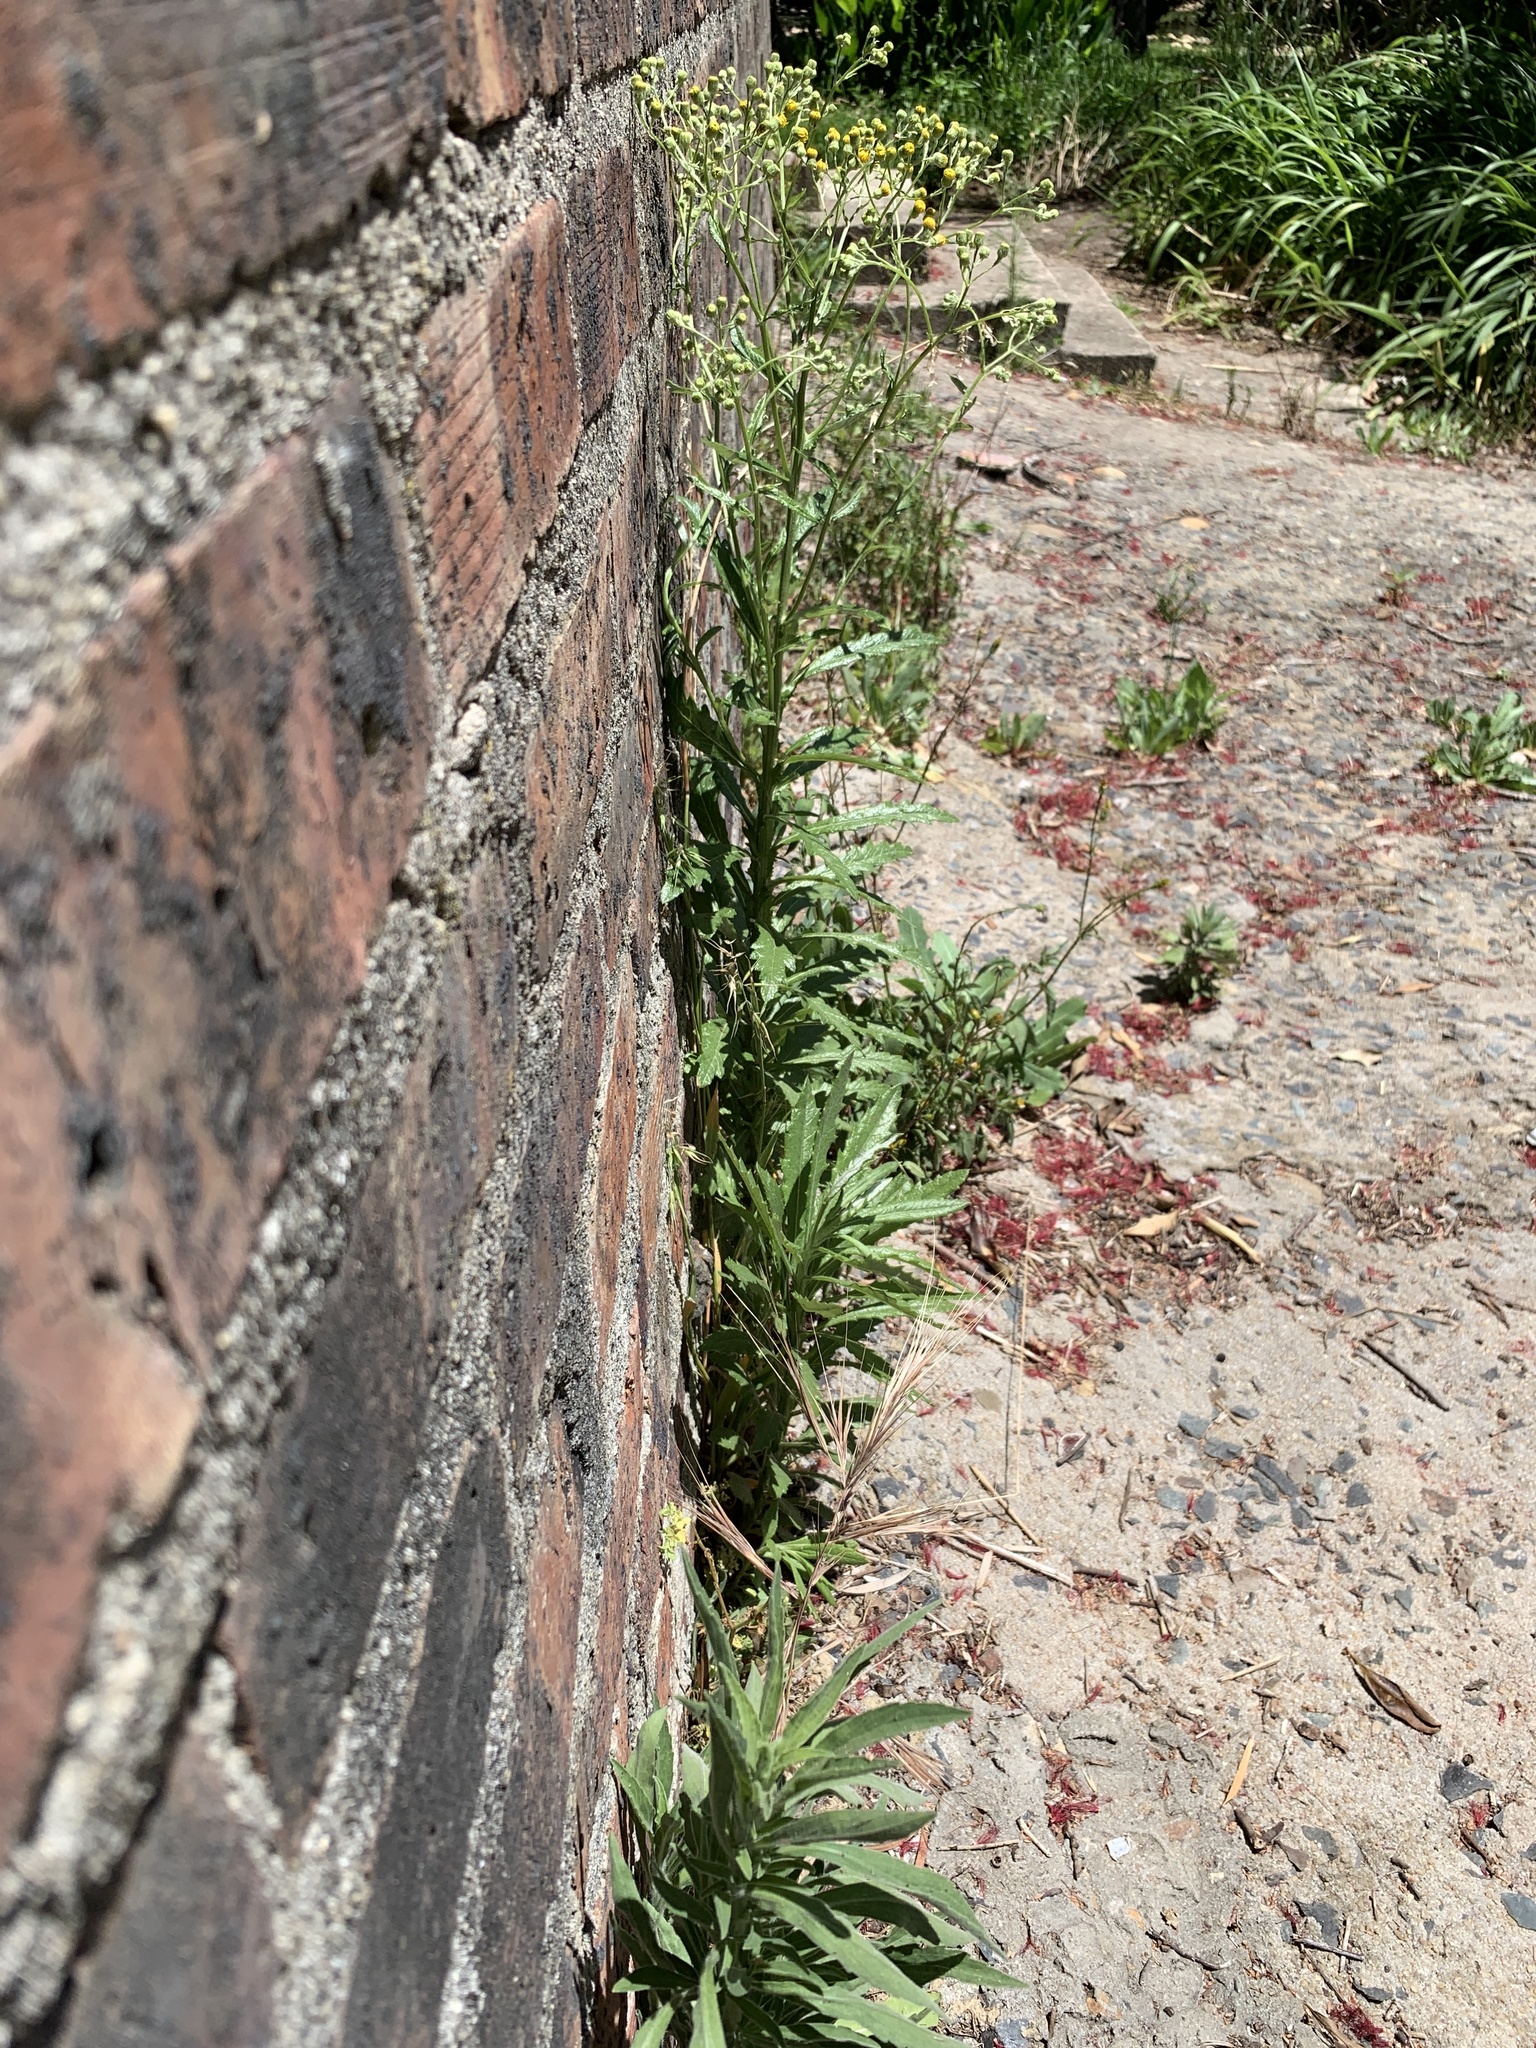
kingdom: Plantae
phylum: Tracheophyta
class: Magnoliopsida
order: Asterales
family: Asteraceae
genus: Senecio
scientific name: Senecio pterophorus
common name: Shoddy ragwort
